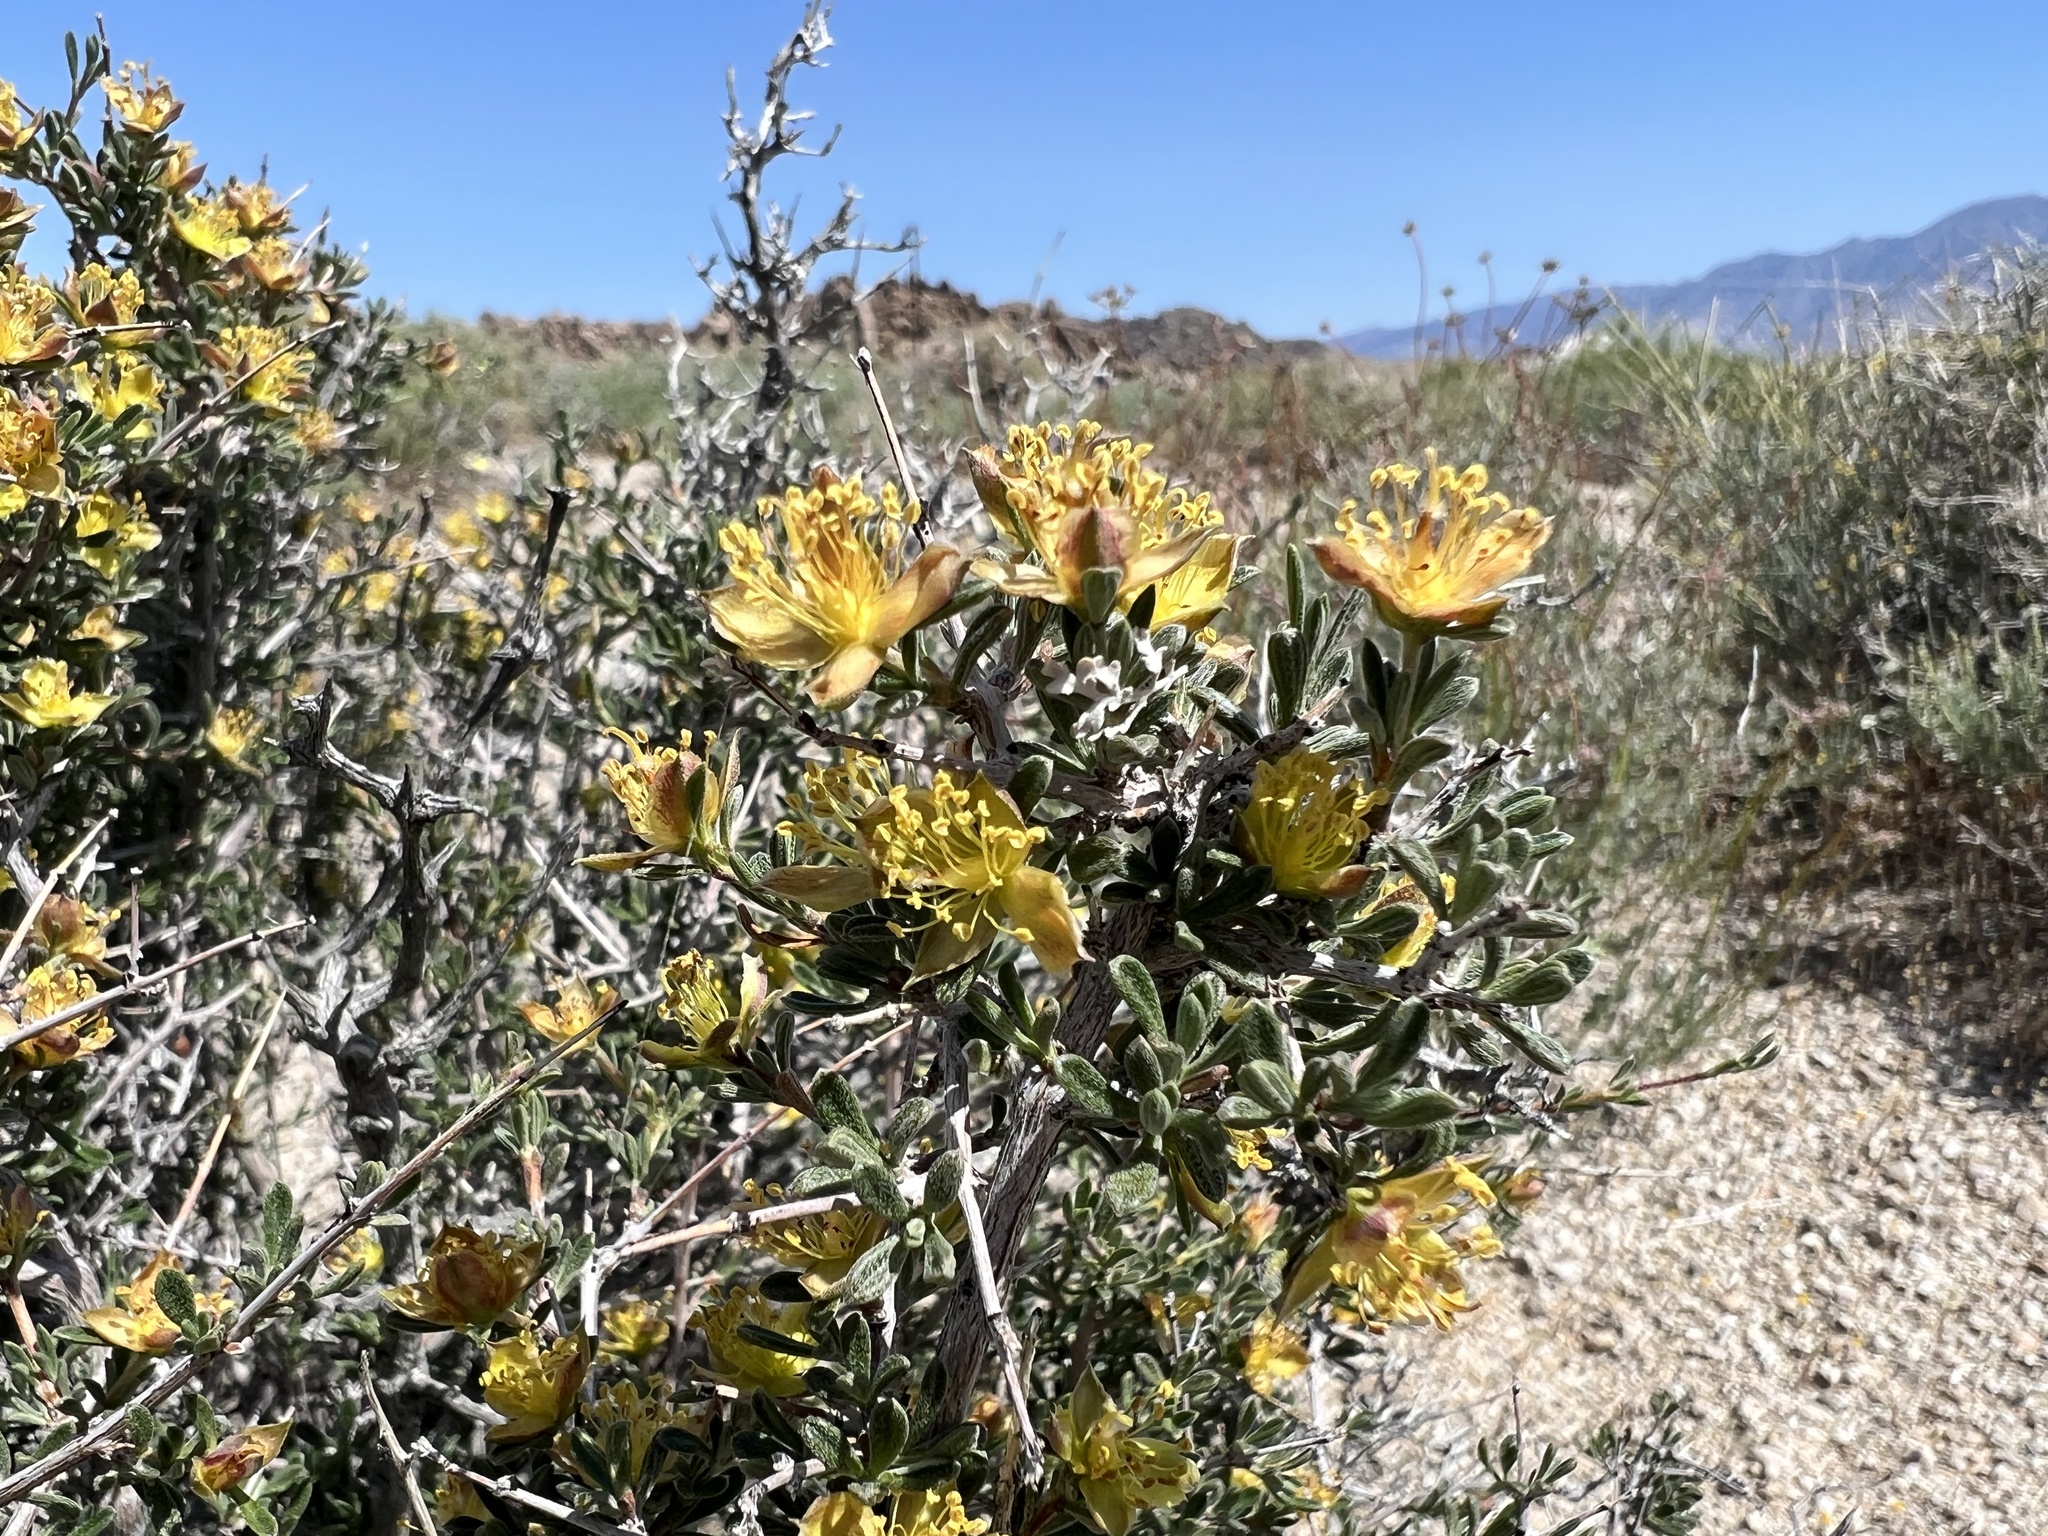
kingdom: Plantae
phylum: Tracheophyta
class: Magnoliopsida
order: Rosales
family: Rosaceae
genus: Coleogyne
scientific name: Coleogyne ramosissima
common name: Blackbrush
